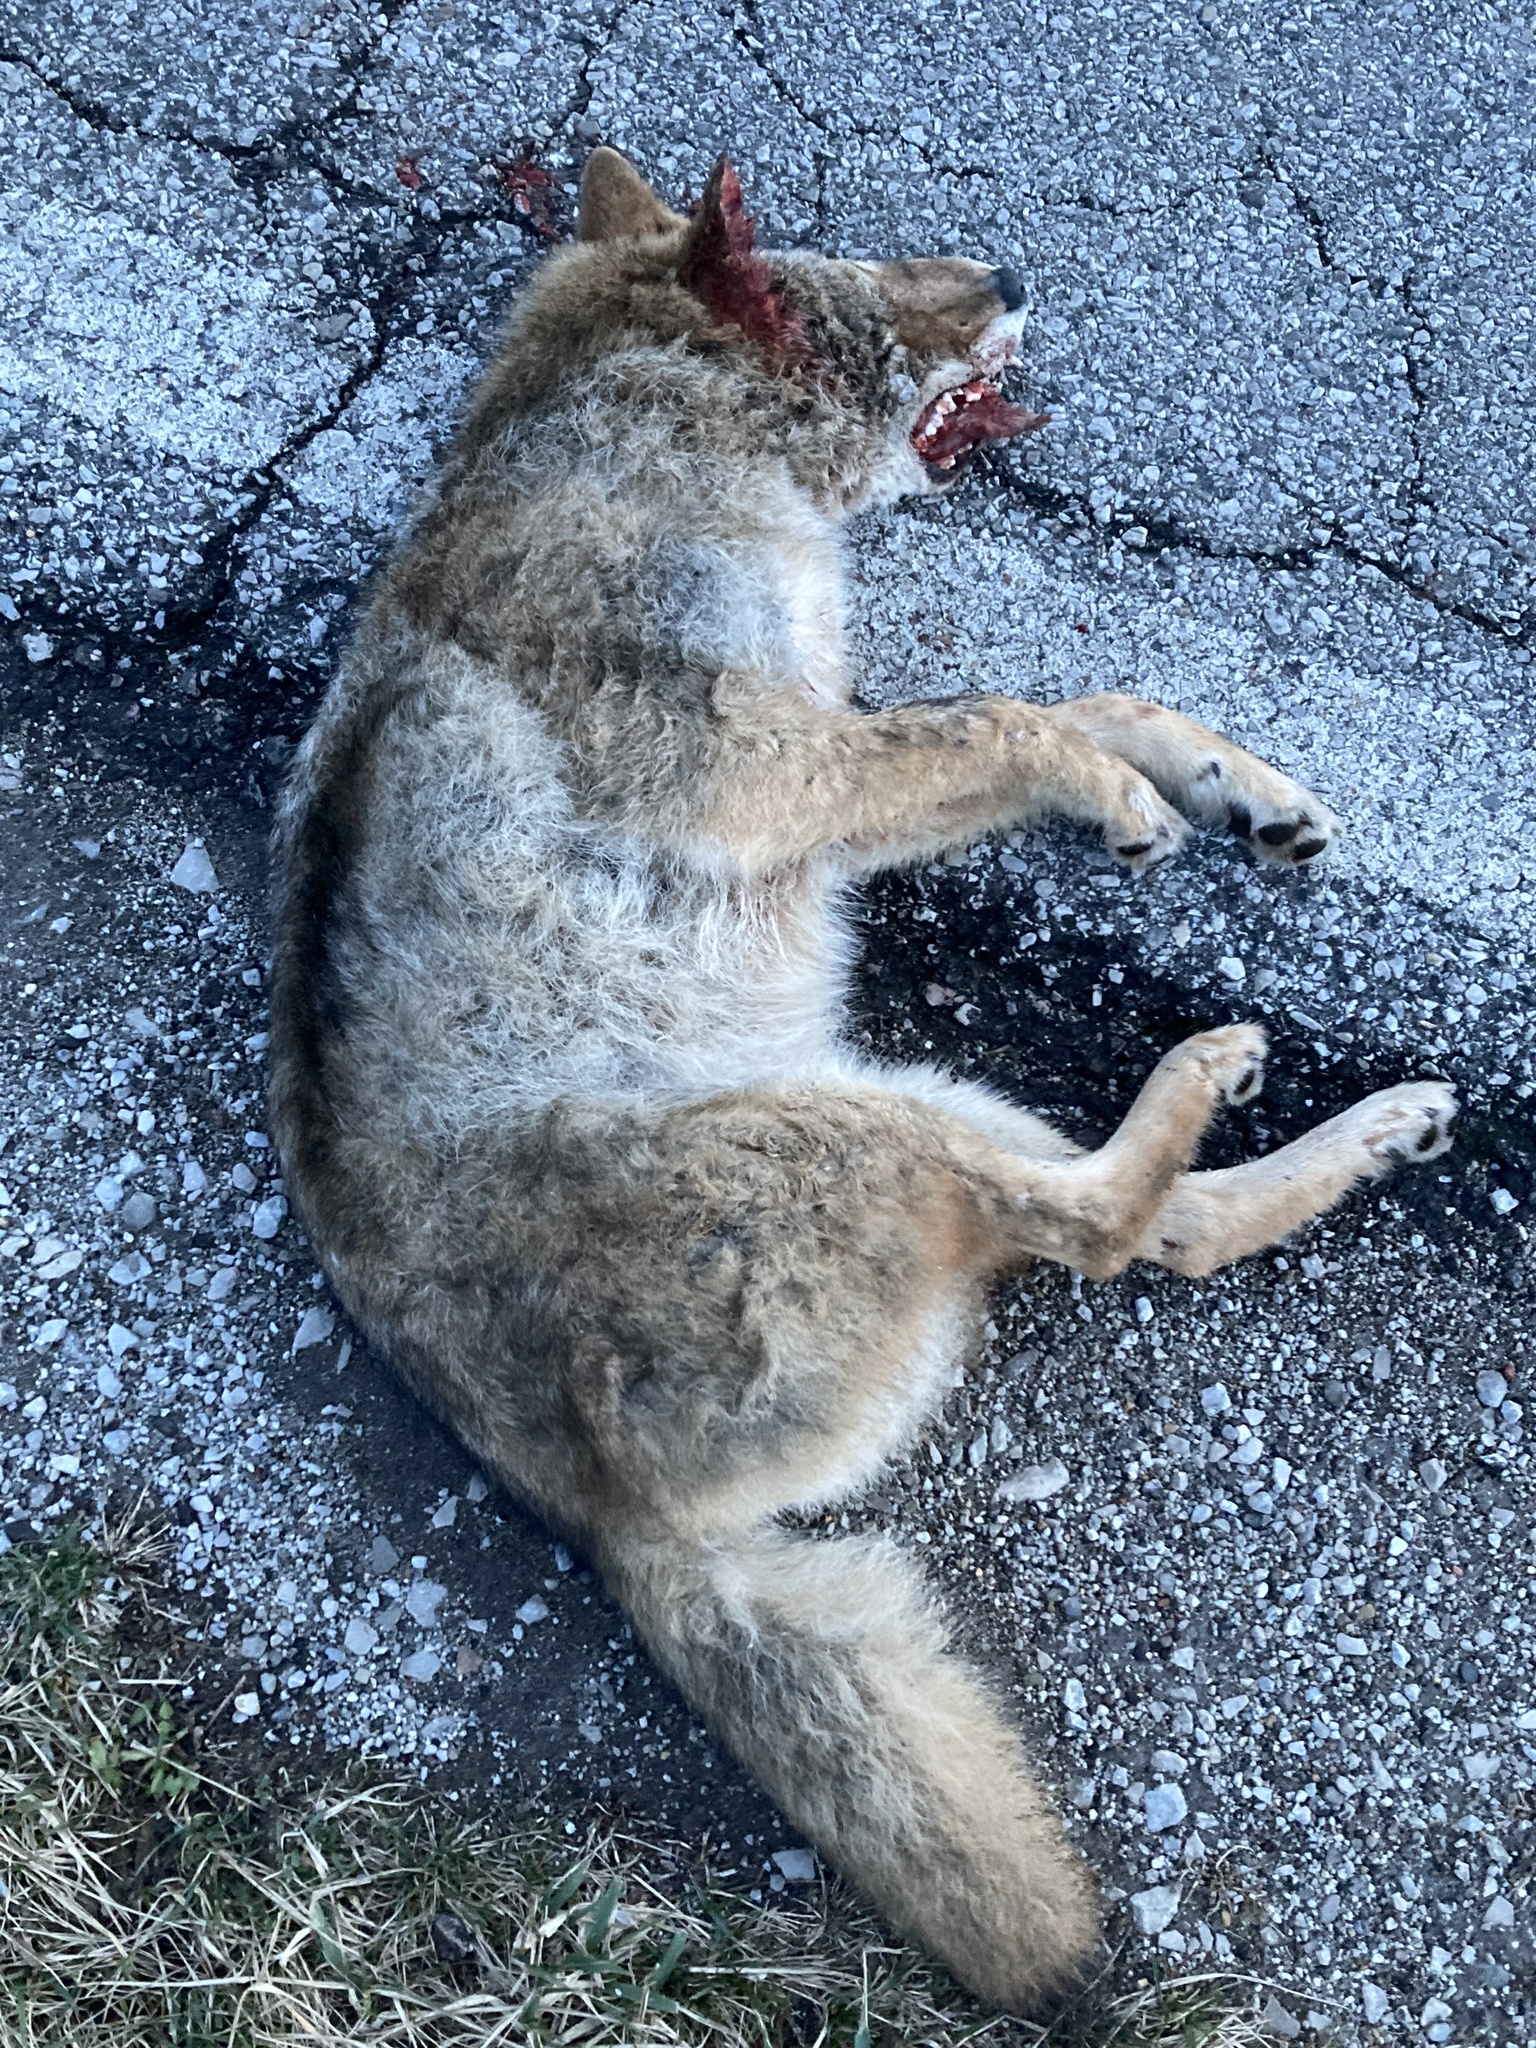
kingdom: Animalia
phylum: Chordata
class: Mammalia
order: Carnivora
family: Canidae
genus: Canis
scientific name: Canis latrans
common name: Coyote
